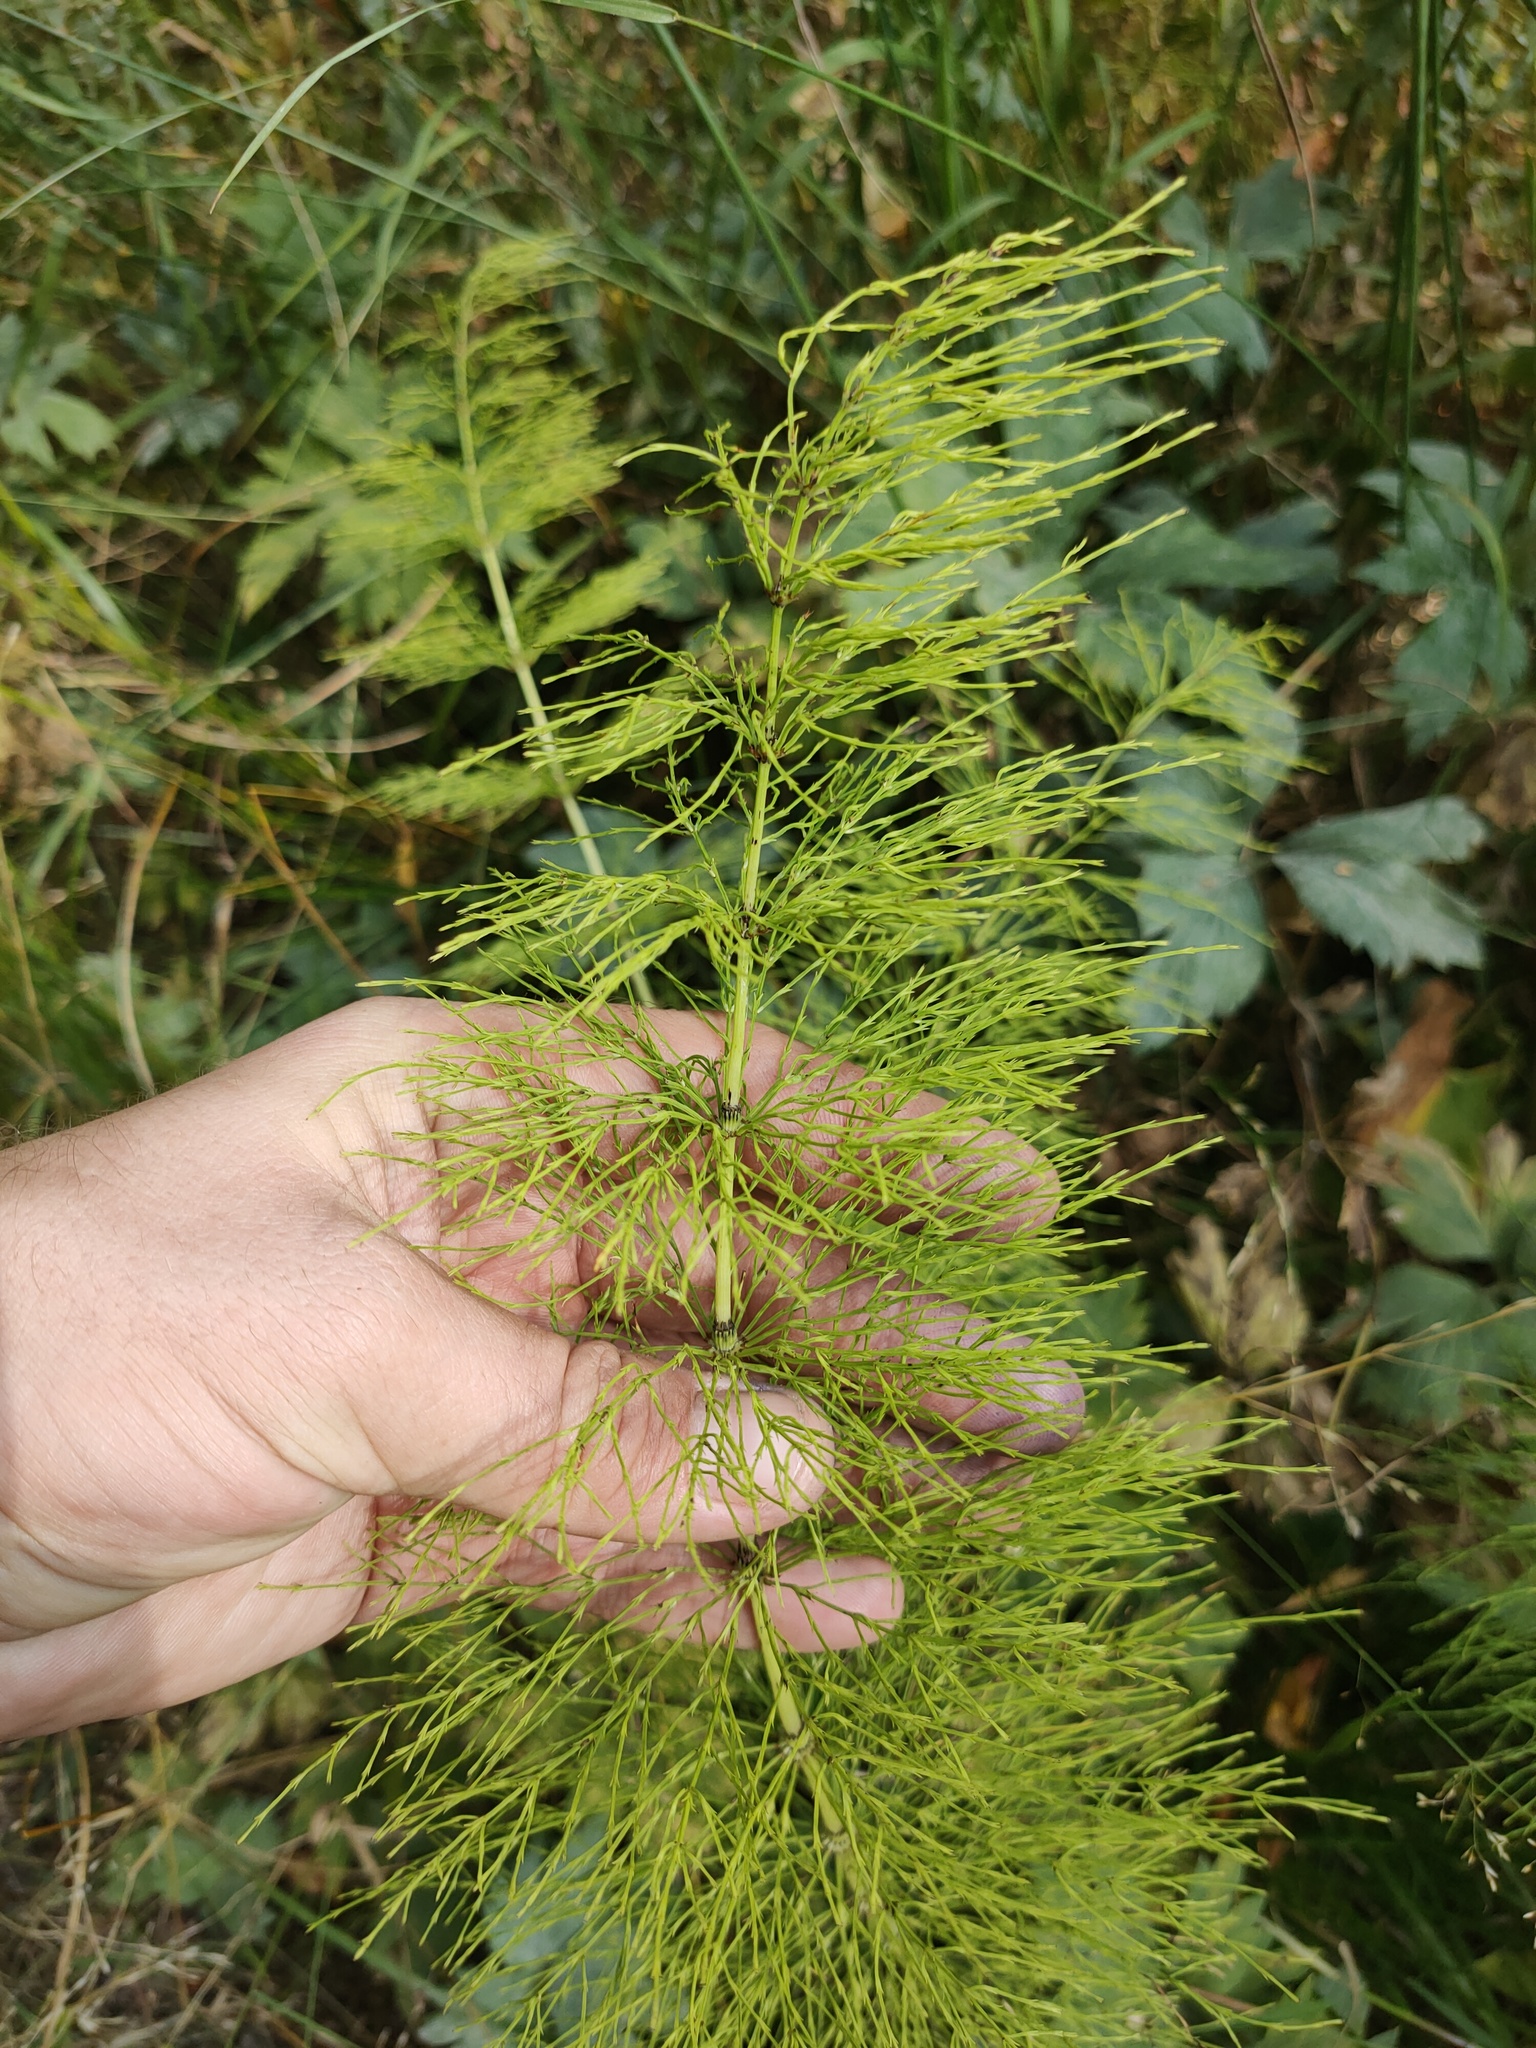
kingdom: Plantae
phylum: Tracheophyta
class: Polypodiopsida
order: Equisetales
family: Equisetaceae
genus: Equisetum
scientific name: Equisetum sylvaticum
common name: Wood horsetail
